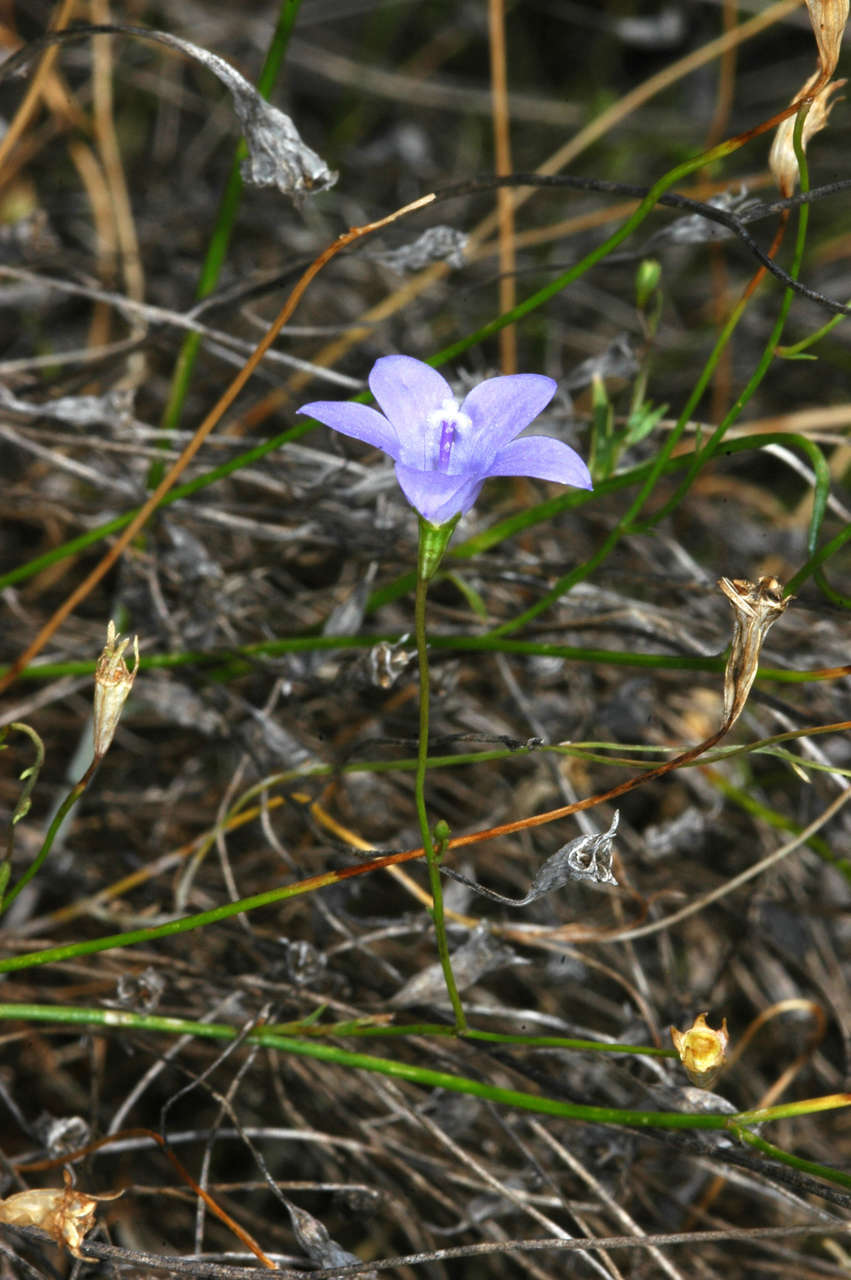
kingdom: Plantae
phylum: Tracheophyta
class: Magnoliopsida
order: Asterales
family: Campanulaceae
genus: Wahlenbergia
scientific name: Wahlenbergia
